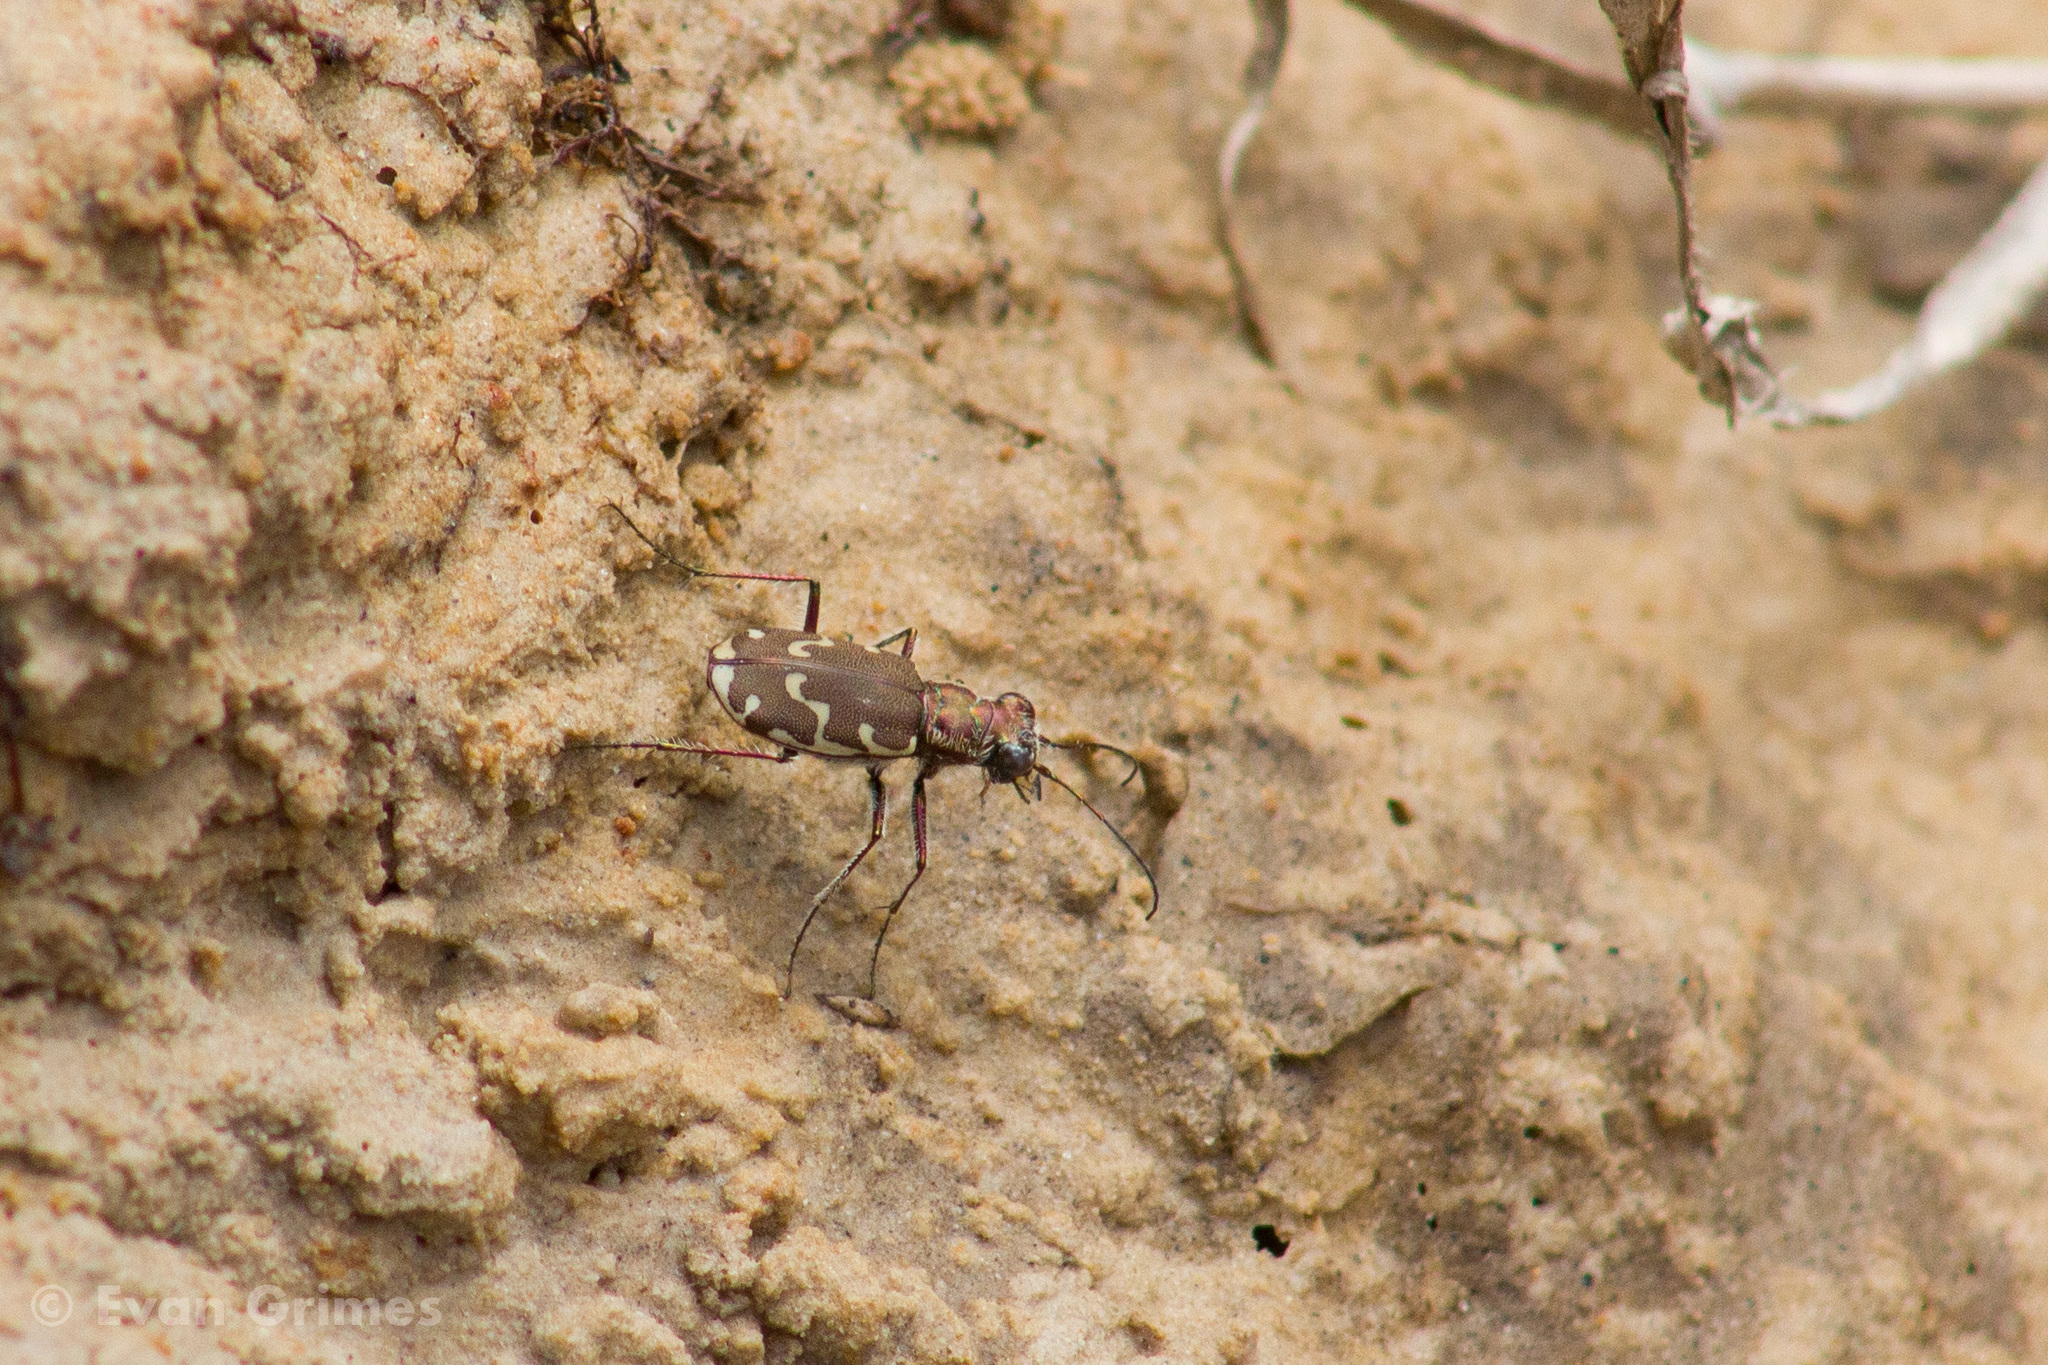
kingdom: Animalia
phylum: Arthropoda
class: Insecta
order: Coleoptera
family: Carabidae
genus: Cicindela
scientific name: Cicindela repanda
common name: Bronzed tiger beetle
